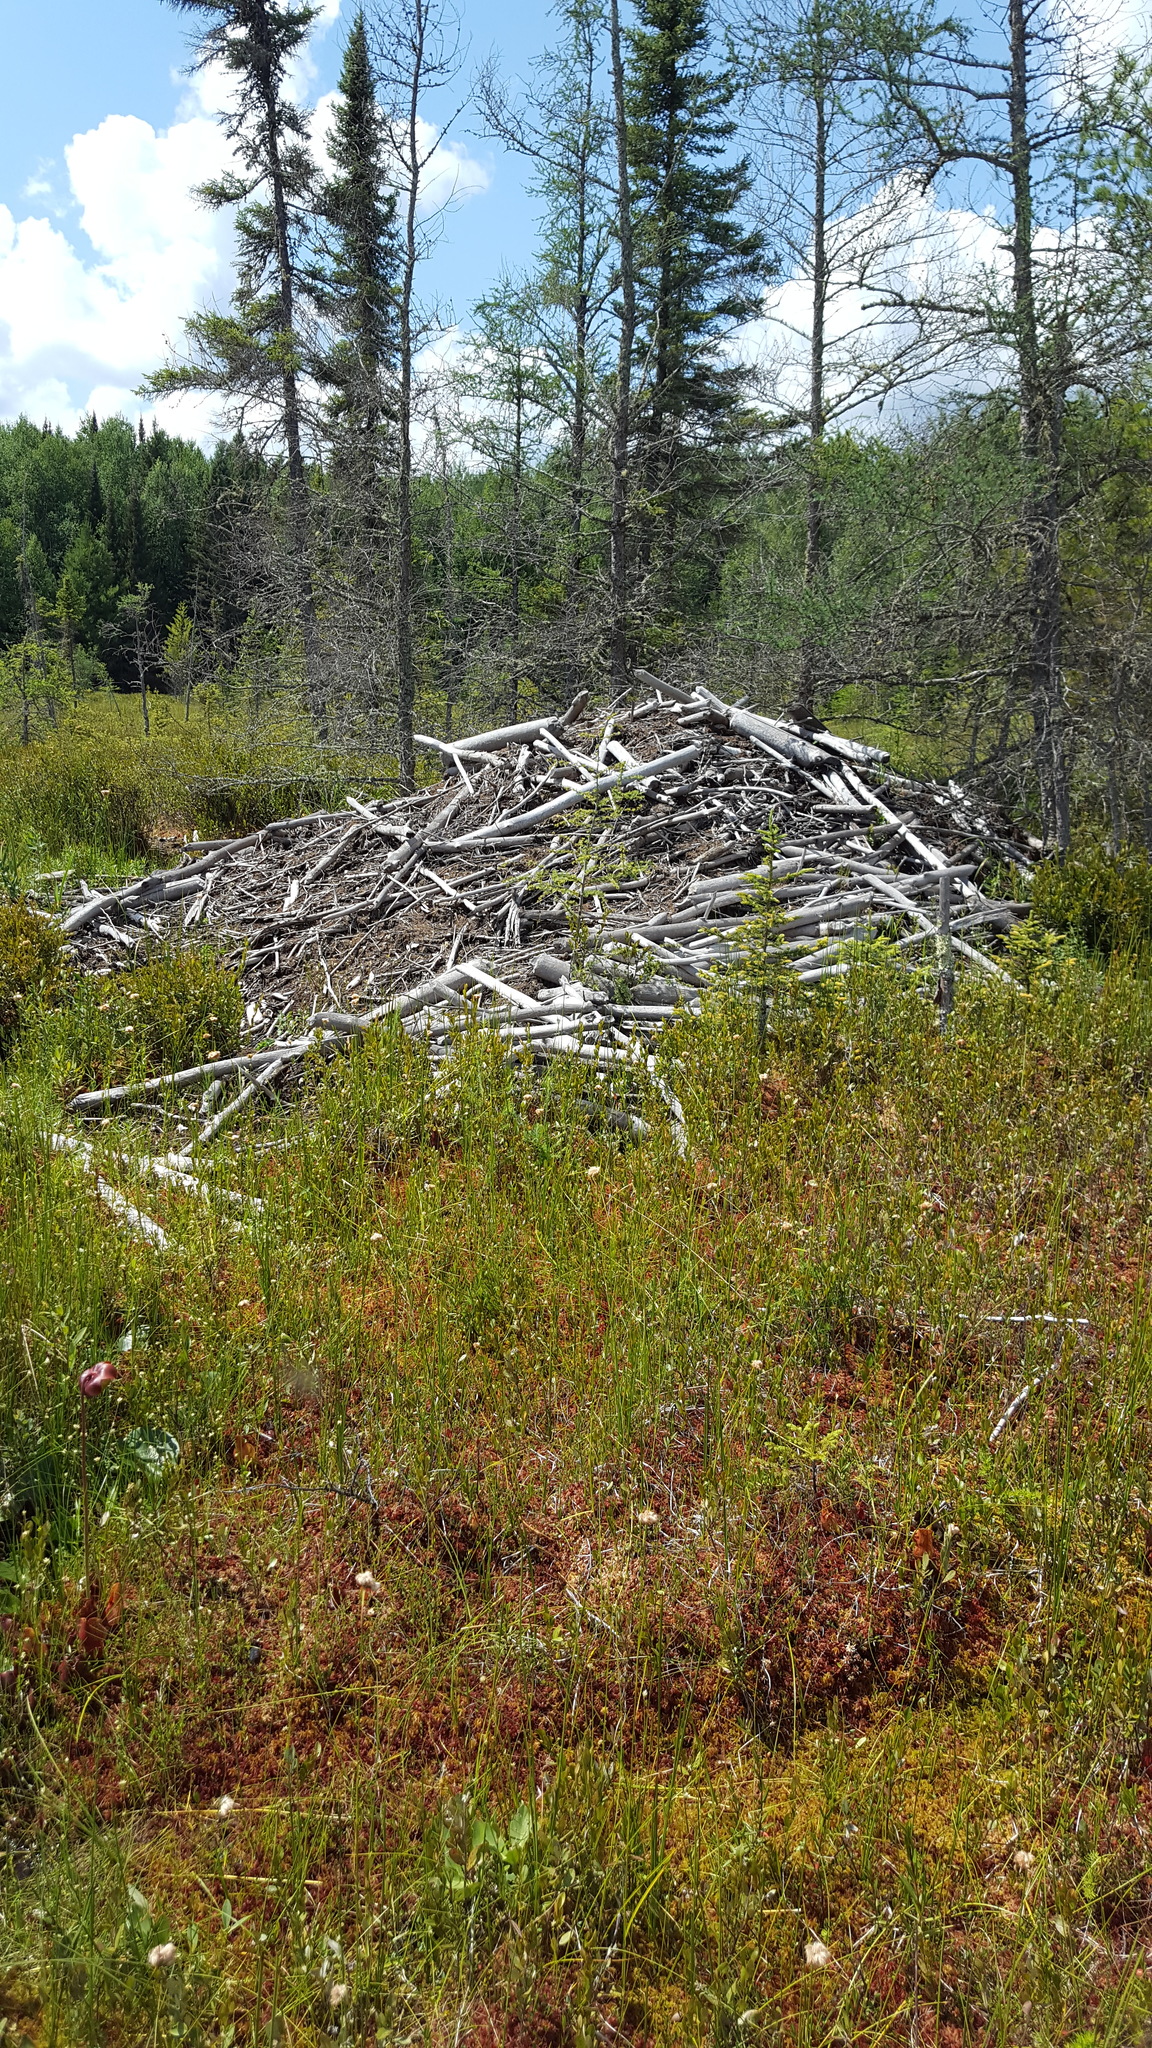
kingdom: Animalia
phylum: Chordata
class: Mammalia
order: Rodentia
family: Castoridae
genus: Castor
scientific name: Castor canadensis
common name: American beaver
